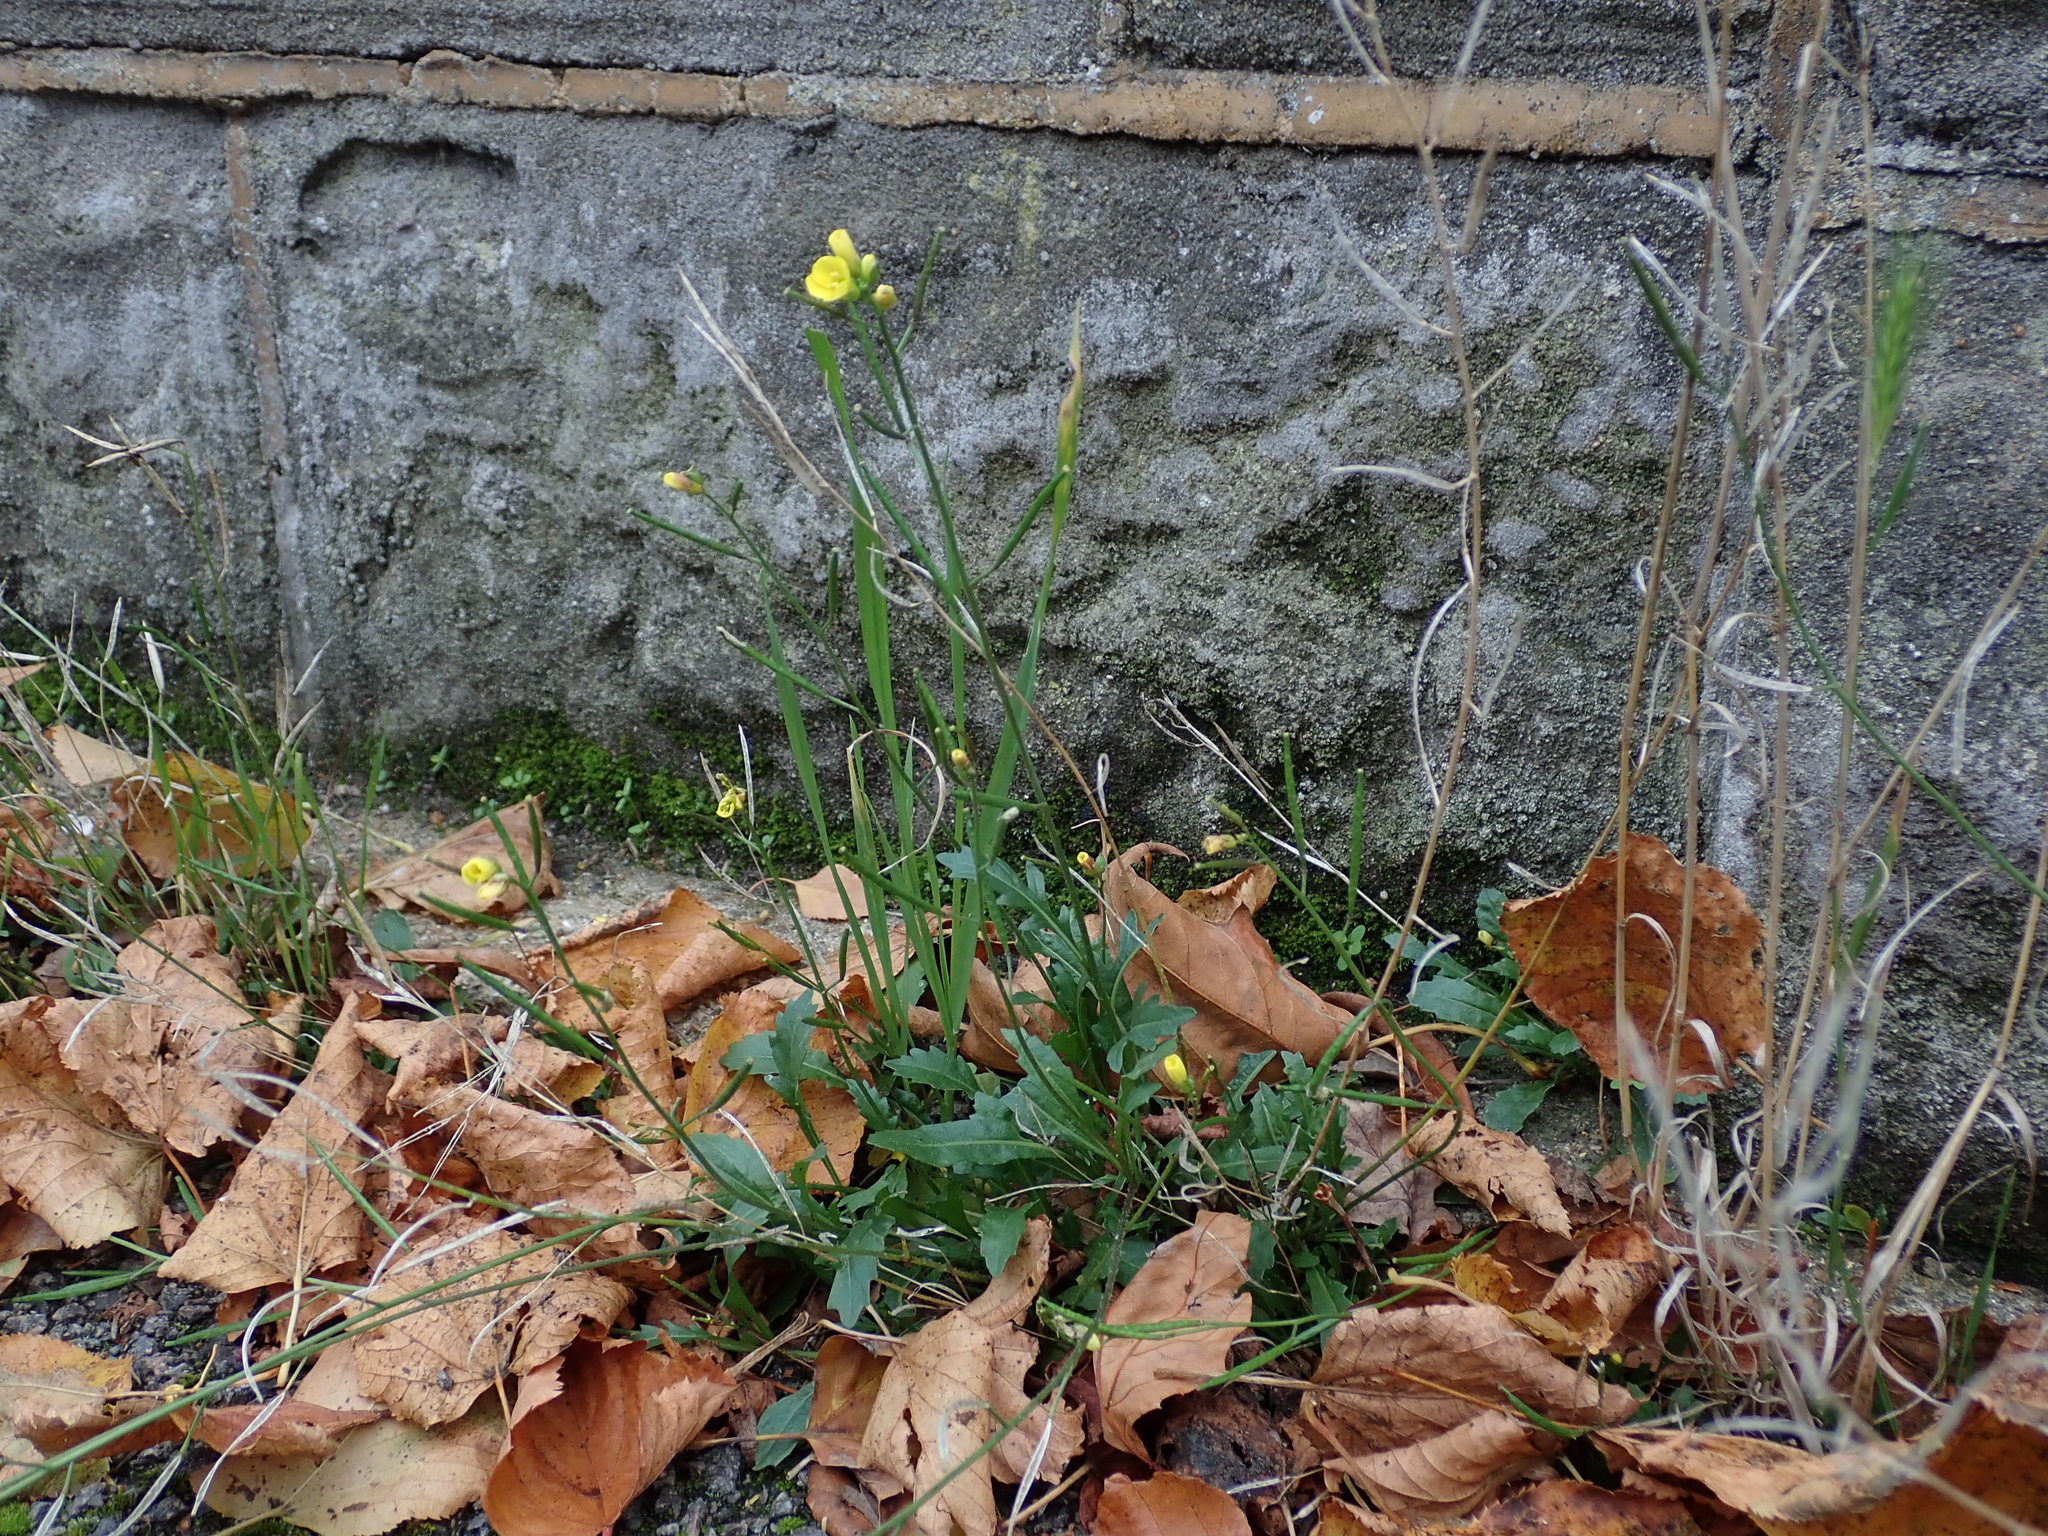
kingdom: Plantae
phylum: Tracheophyta
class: Magnoliopsida
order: Brassicales
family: Brassicaceae
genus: Diplotaxis
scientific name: Diplotaxis muralis
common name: Annual wall-rocket
